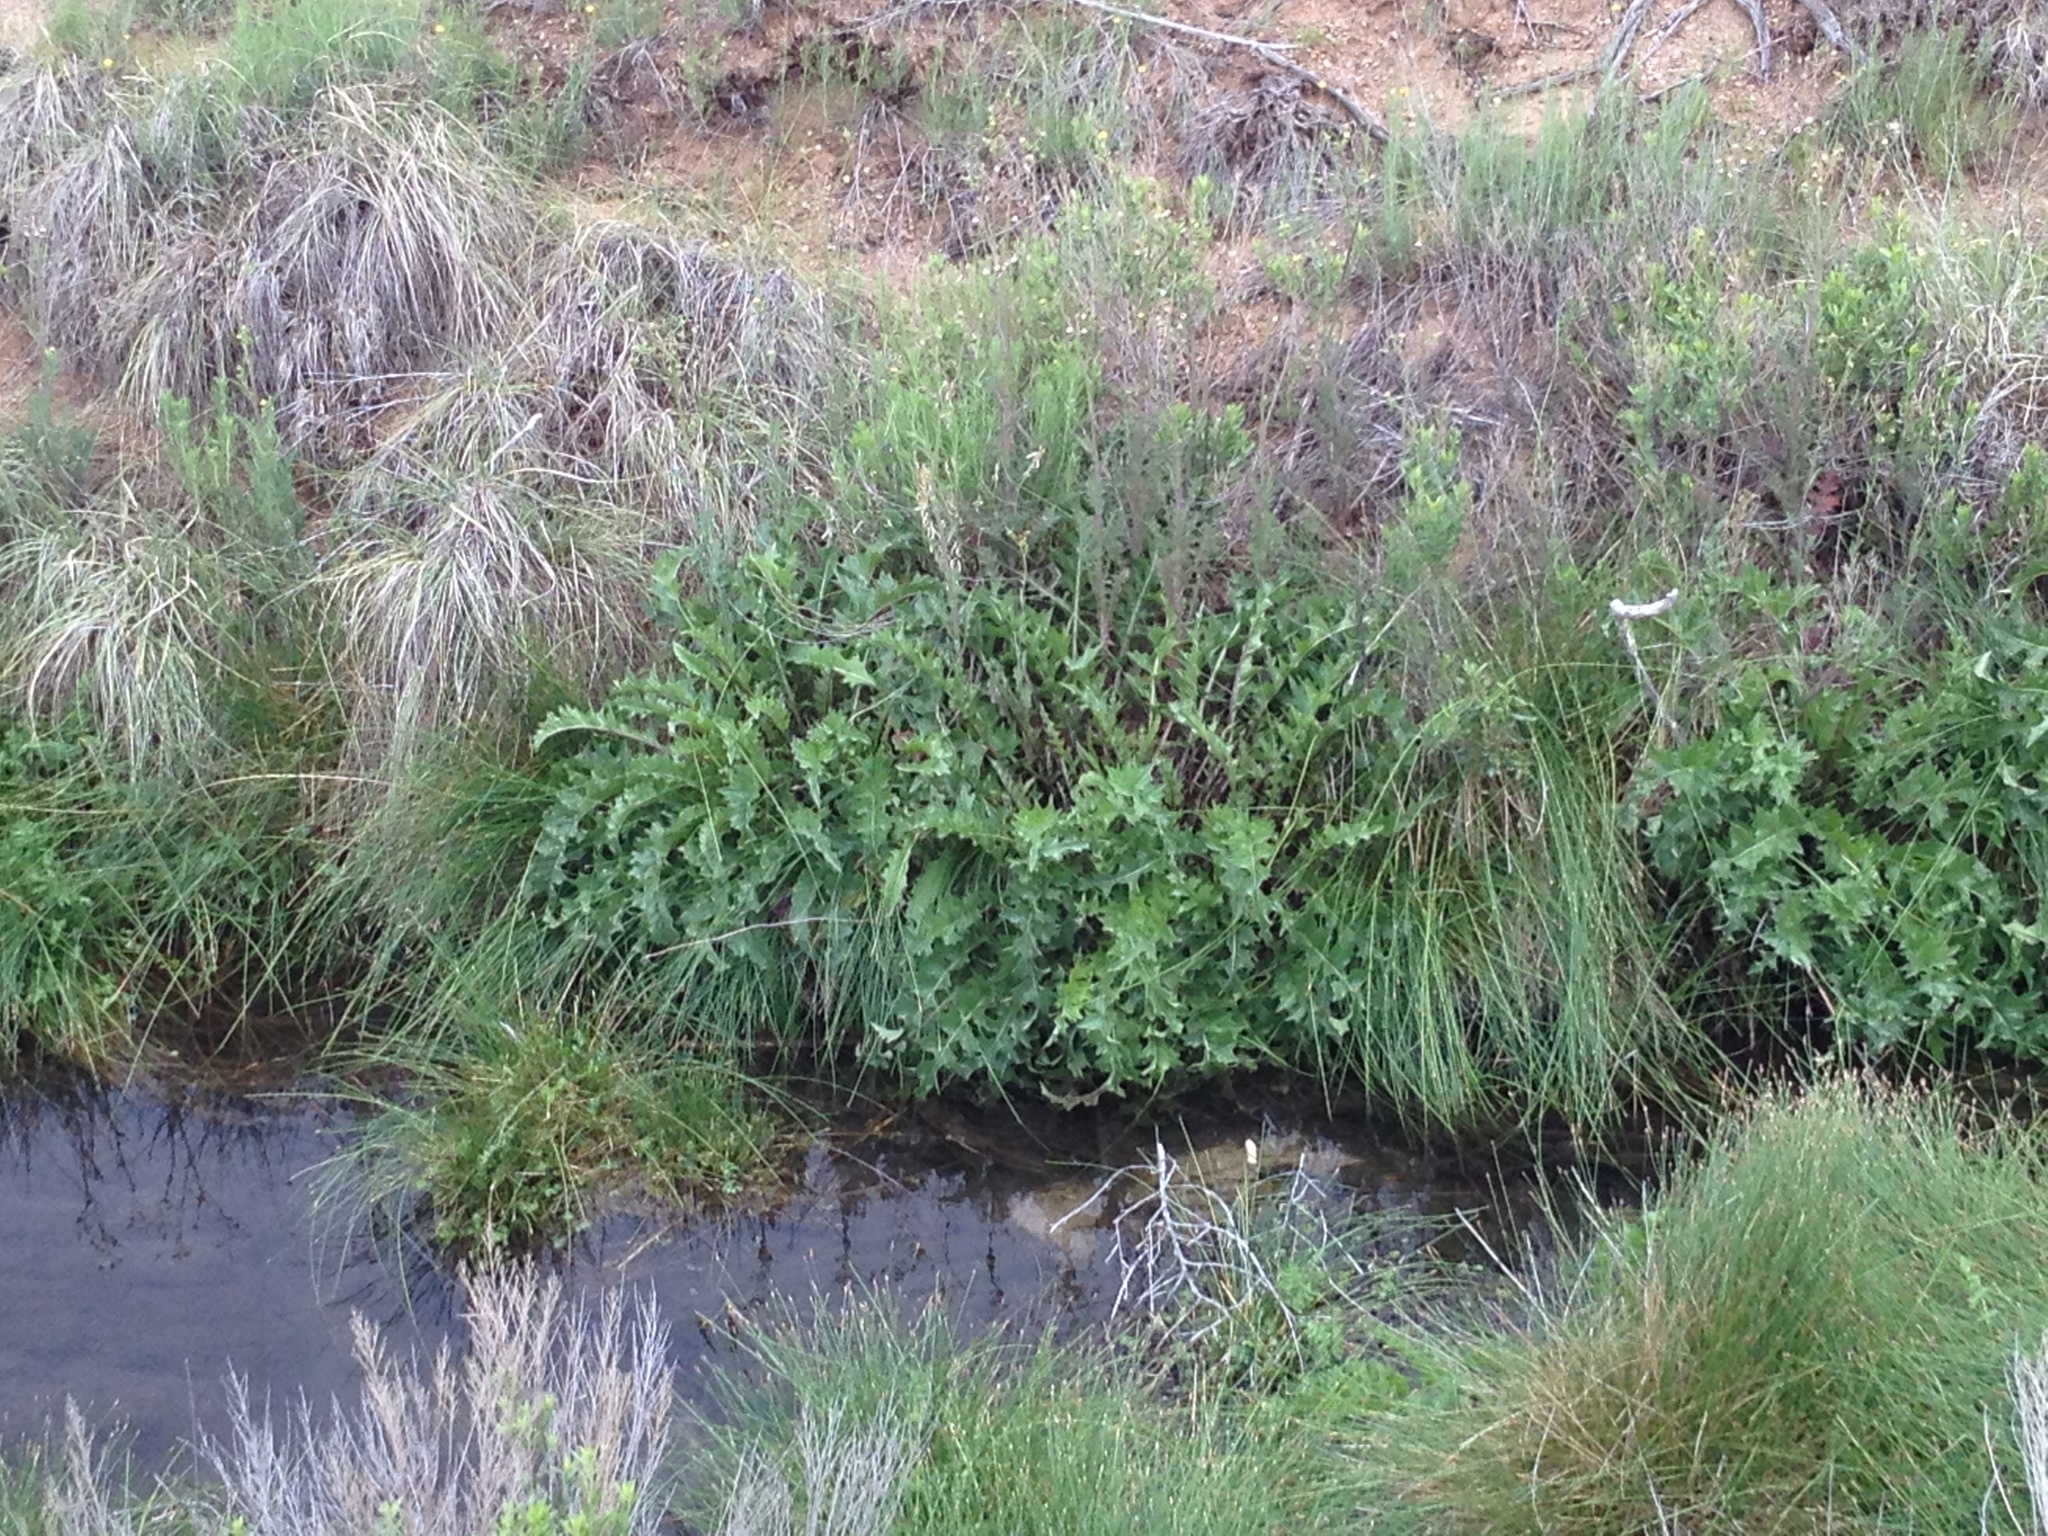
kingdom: Plantae
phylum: Tracheophyta
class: Magnoliopsida
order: Asterales
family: Asteraceae
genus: Cirsium
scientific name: Cirsium wrightii
